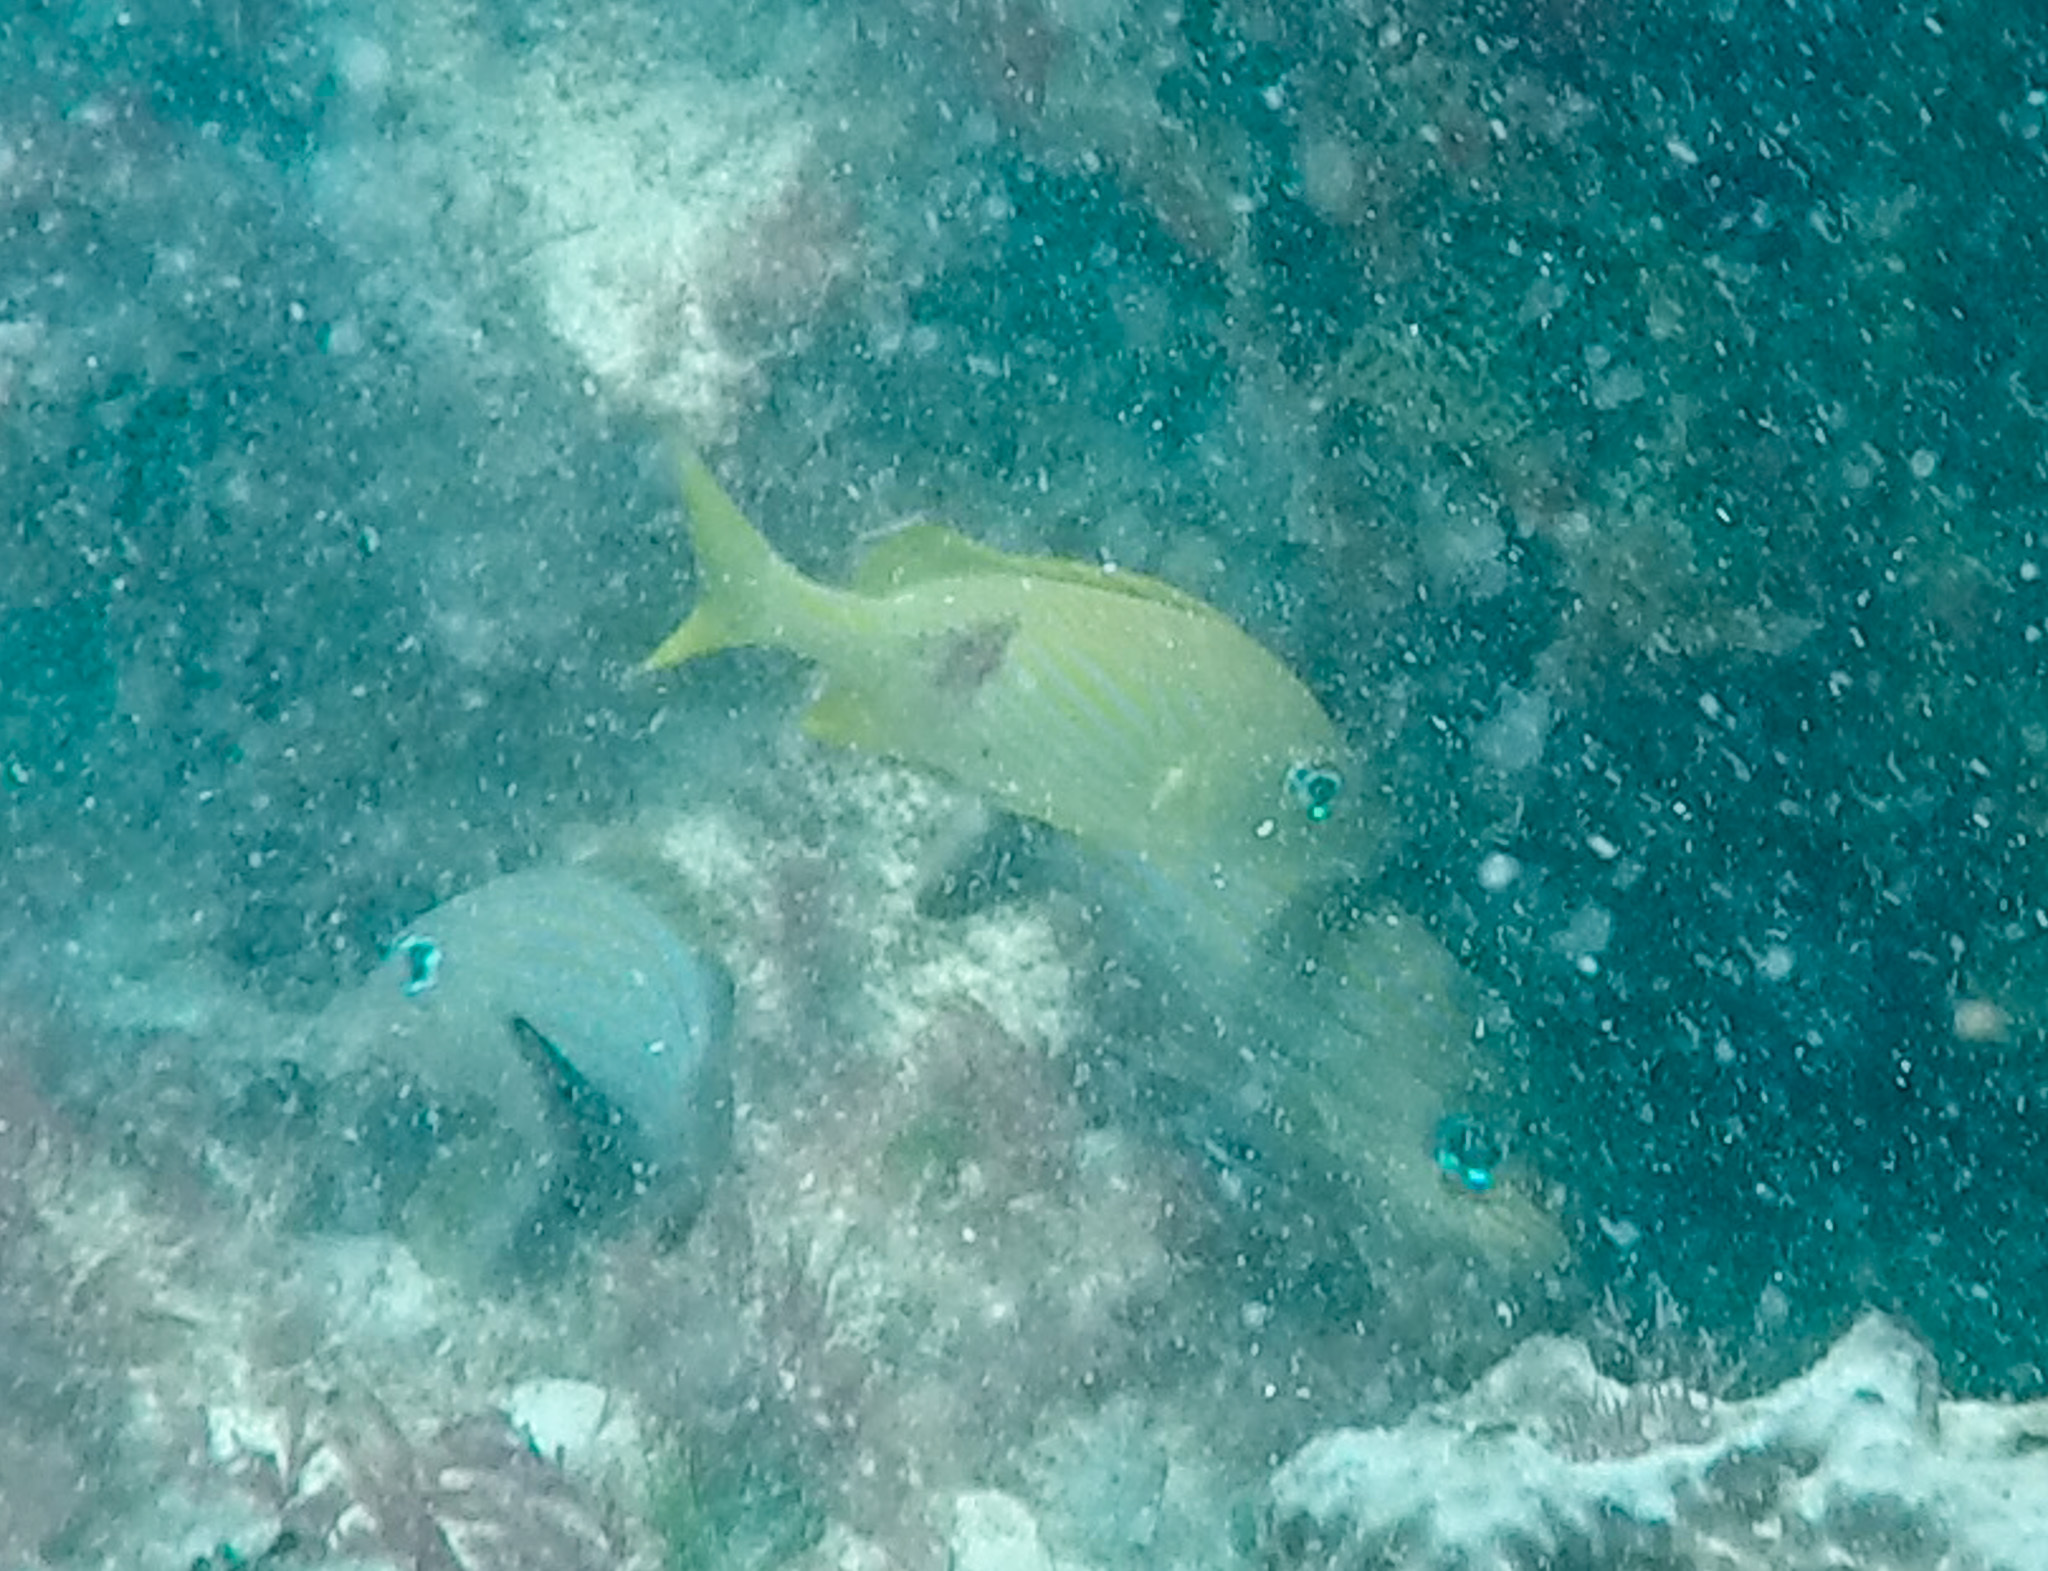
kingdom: Animalia
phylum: Chordata
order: Perciformes
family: Haemulidae
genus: Haemulon
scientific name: Haemulon flavolineatum
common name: French grunt
